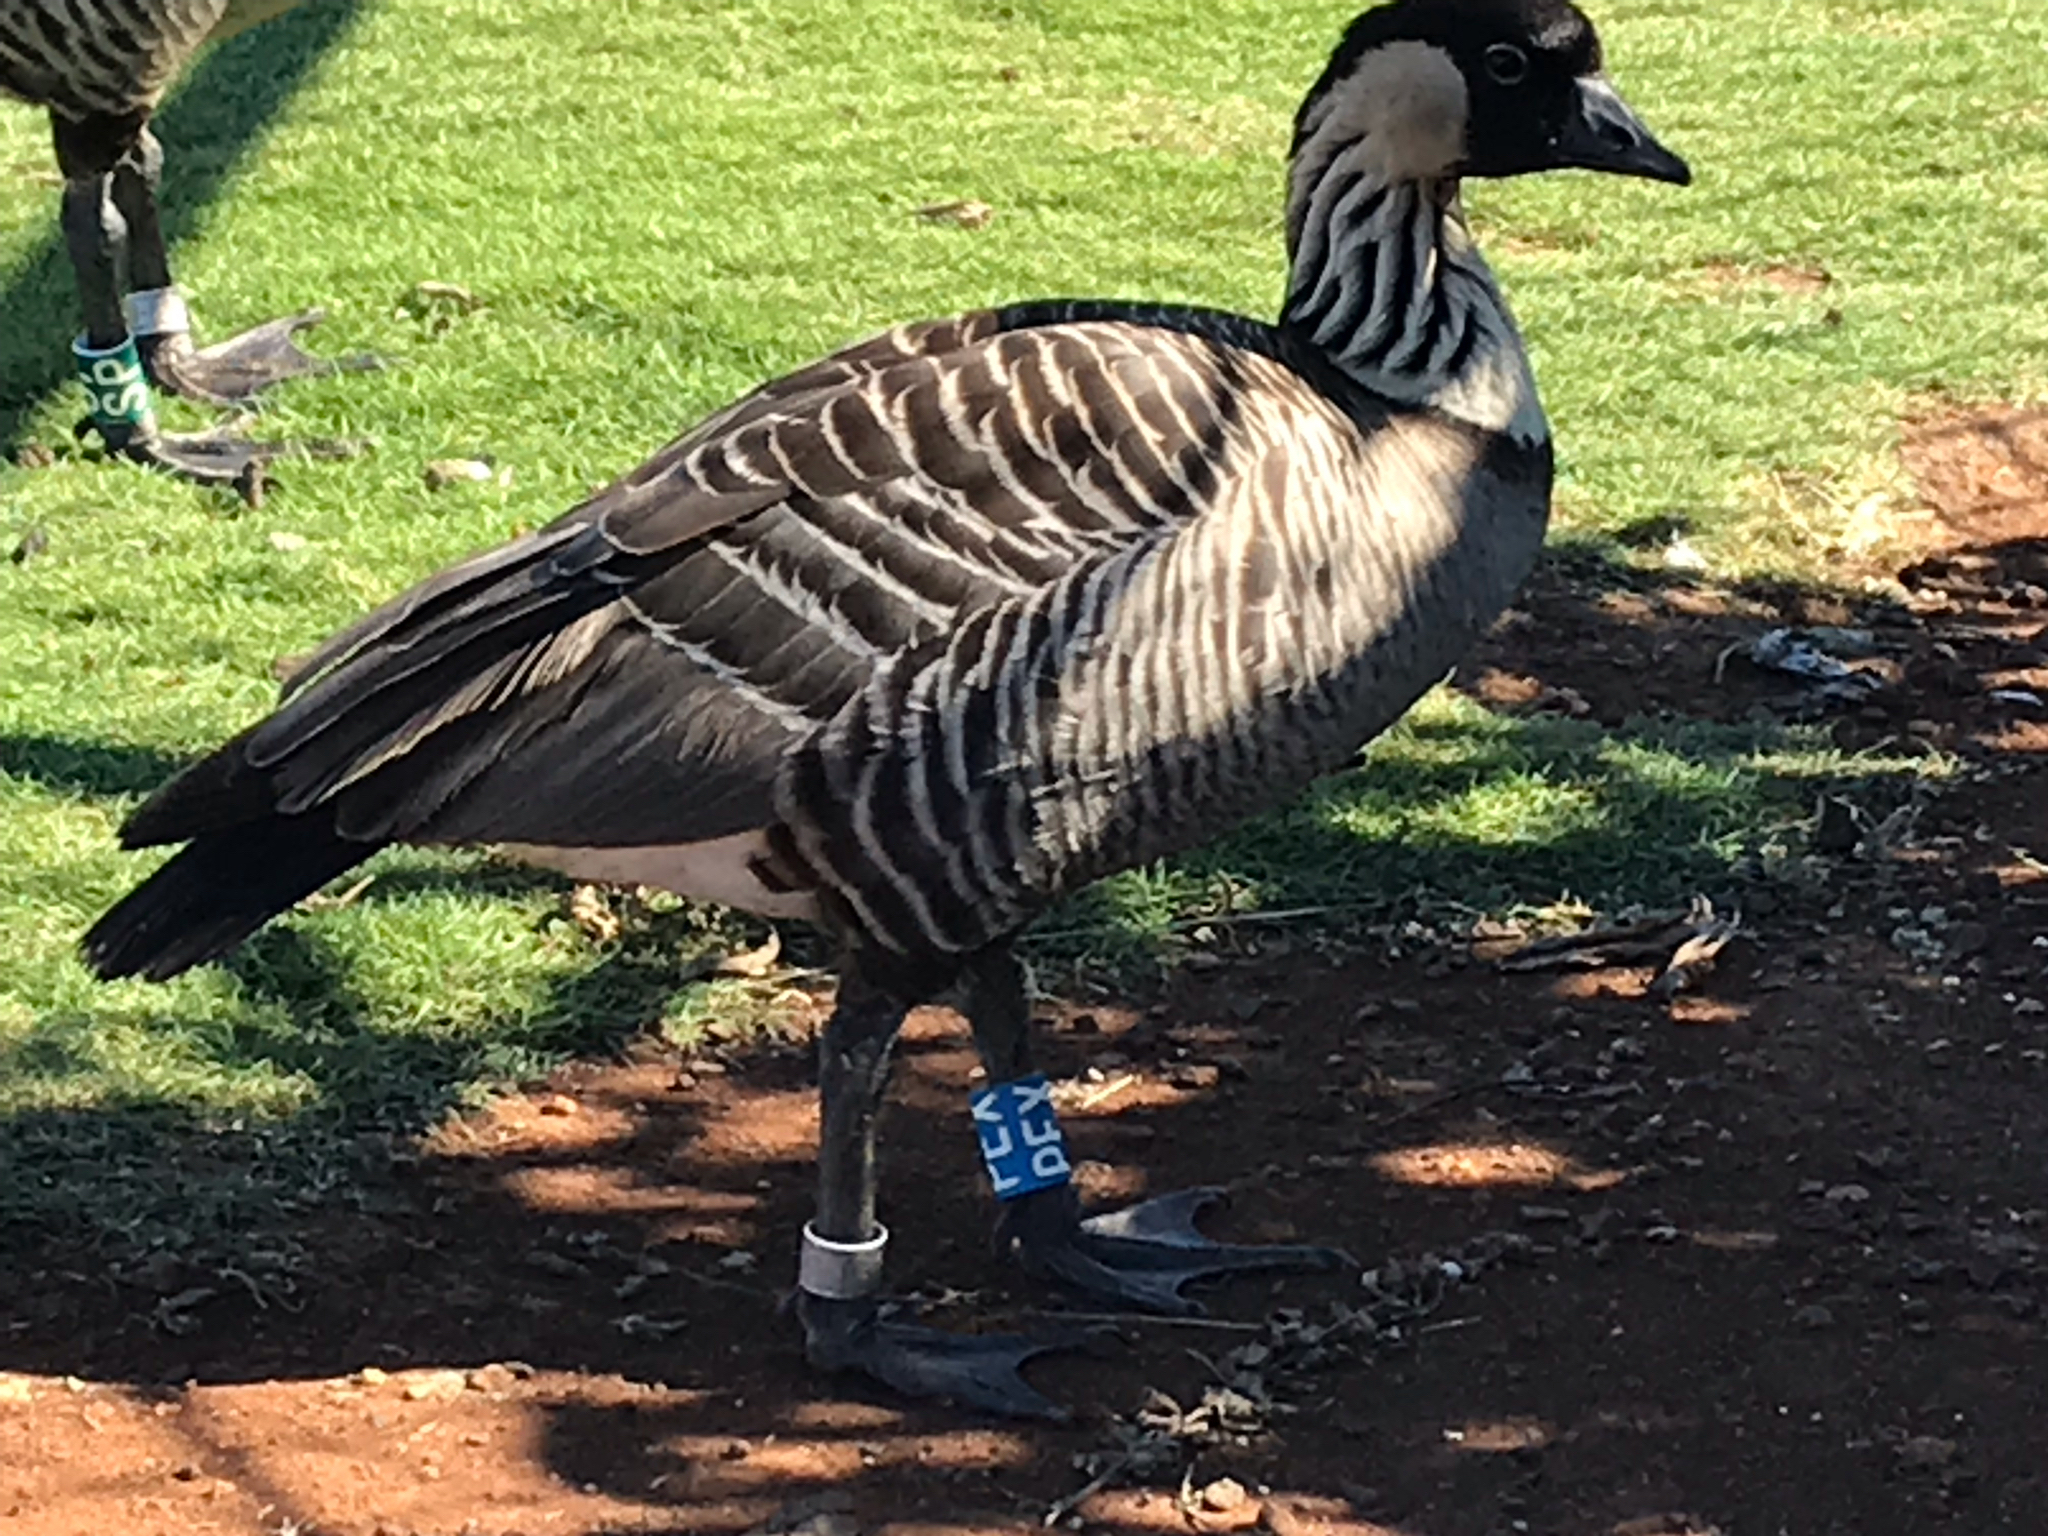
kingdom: Animalia
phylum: Chordata
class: Aves
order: Anseriformes
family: Anatidae
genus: Branta
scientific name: Branta sandvicensis
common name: Nene
